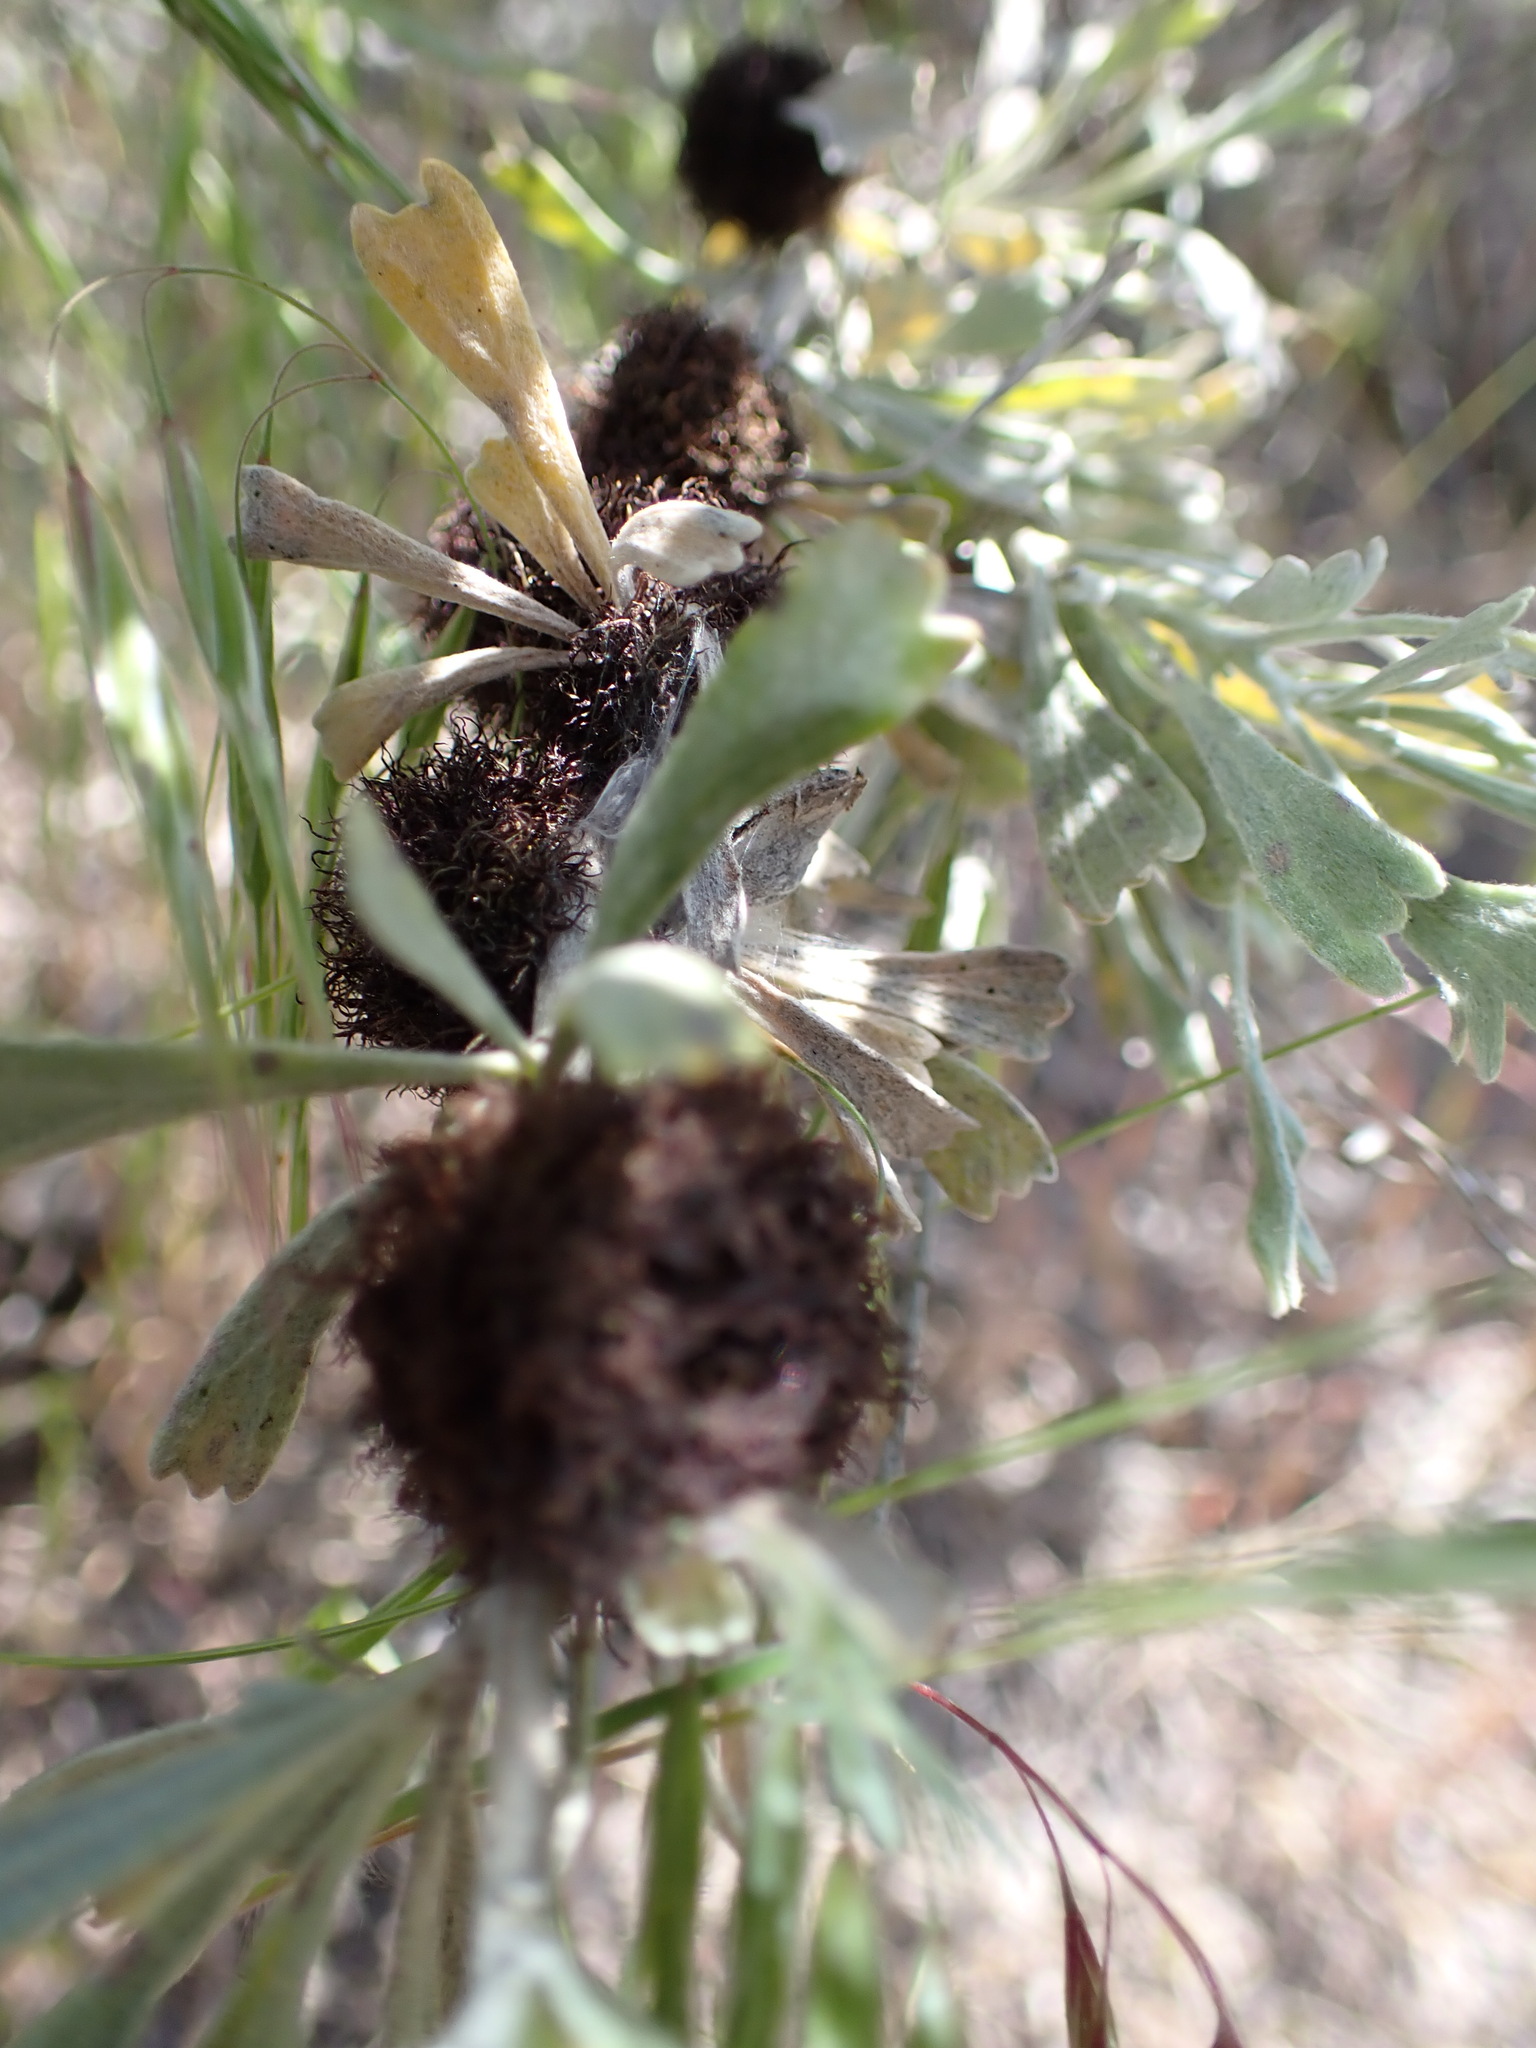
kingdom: Animalia
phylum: Arthropoda
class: Insecta
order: Diptera
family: Cecidomyiidae
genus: Rhopalomyia
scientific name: Rhopalomyia medusa
